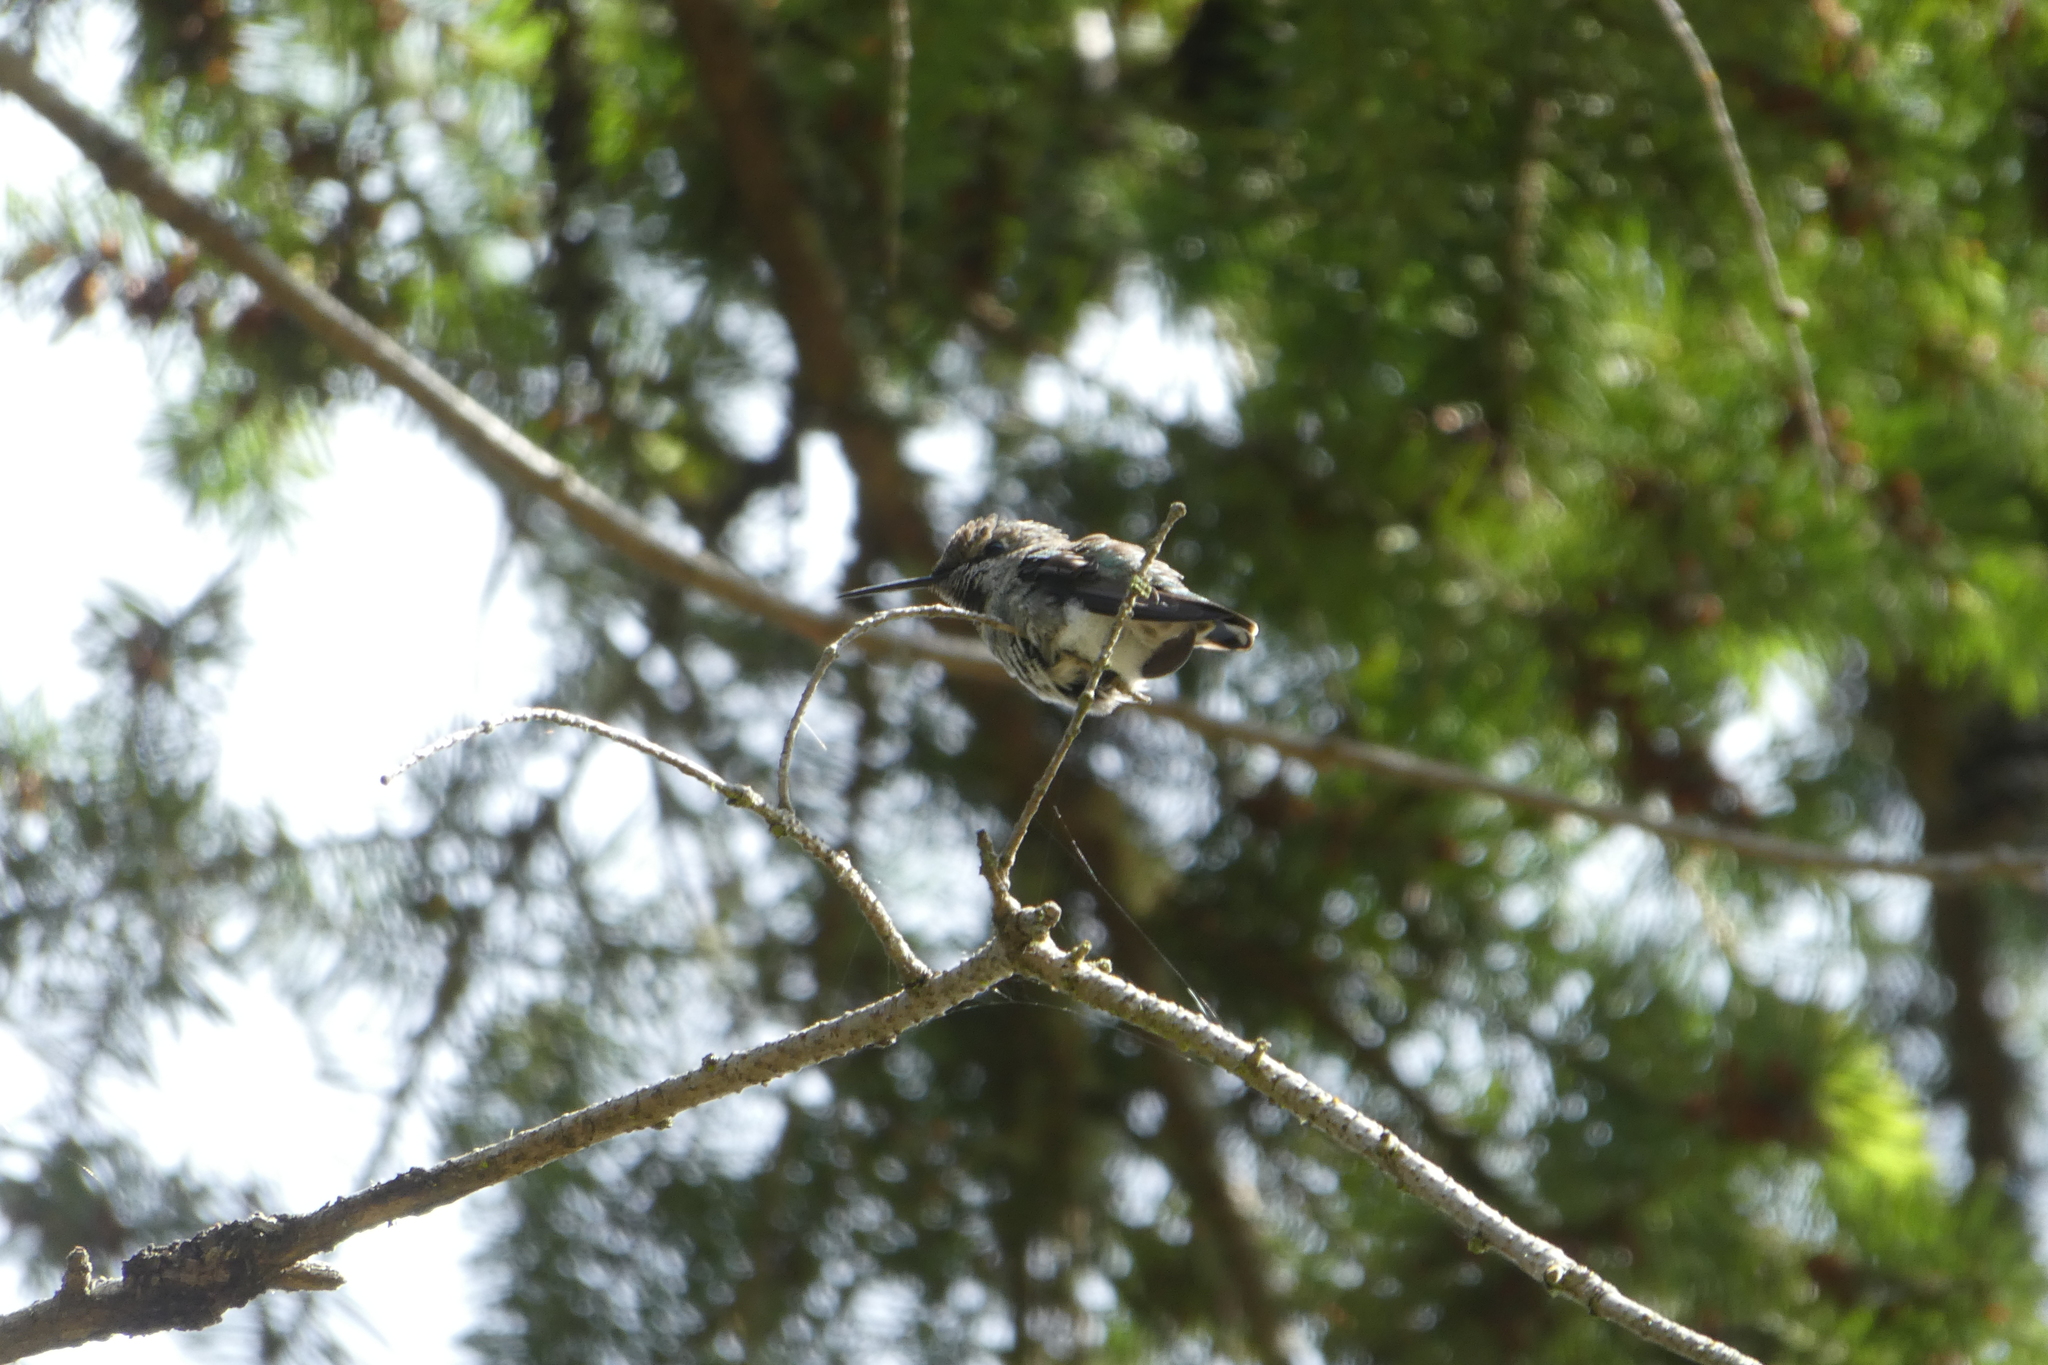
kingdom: Animalia
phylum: Chordata
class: Aves
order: Apodiformes
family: Trochilidae
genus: Calypte
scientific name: Calypte anna
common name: Anna's hummingbird
